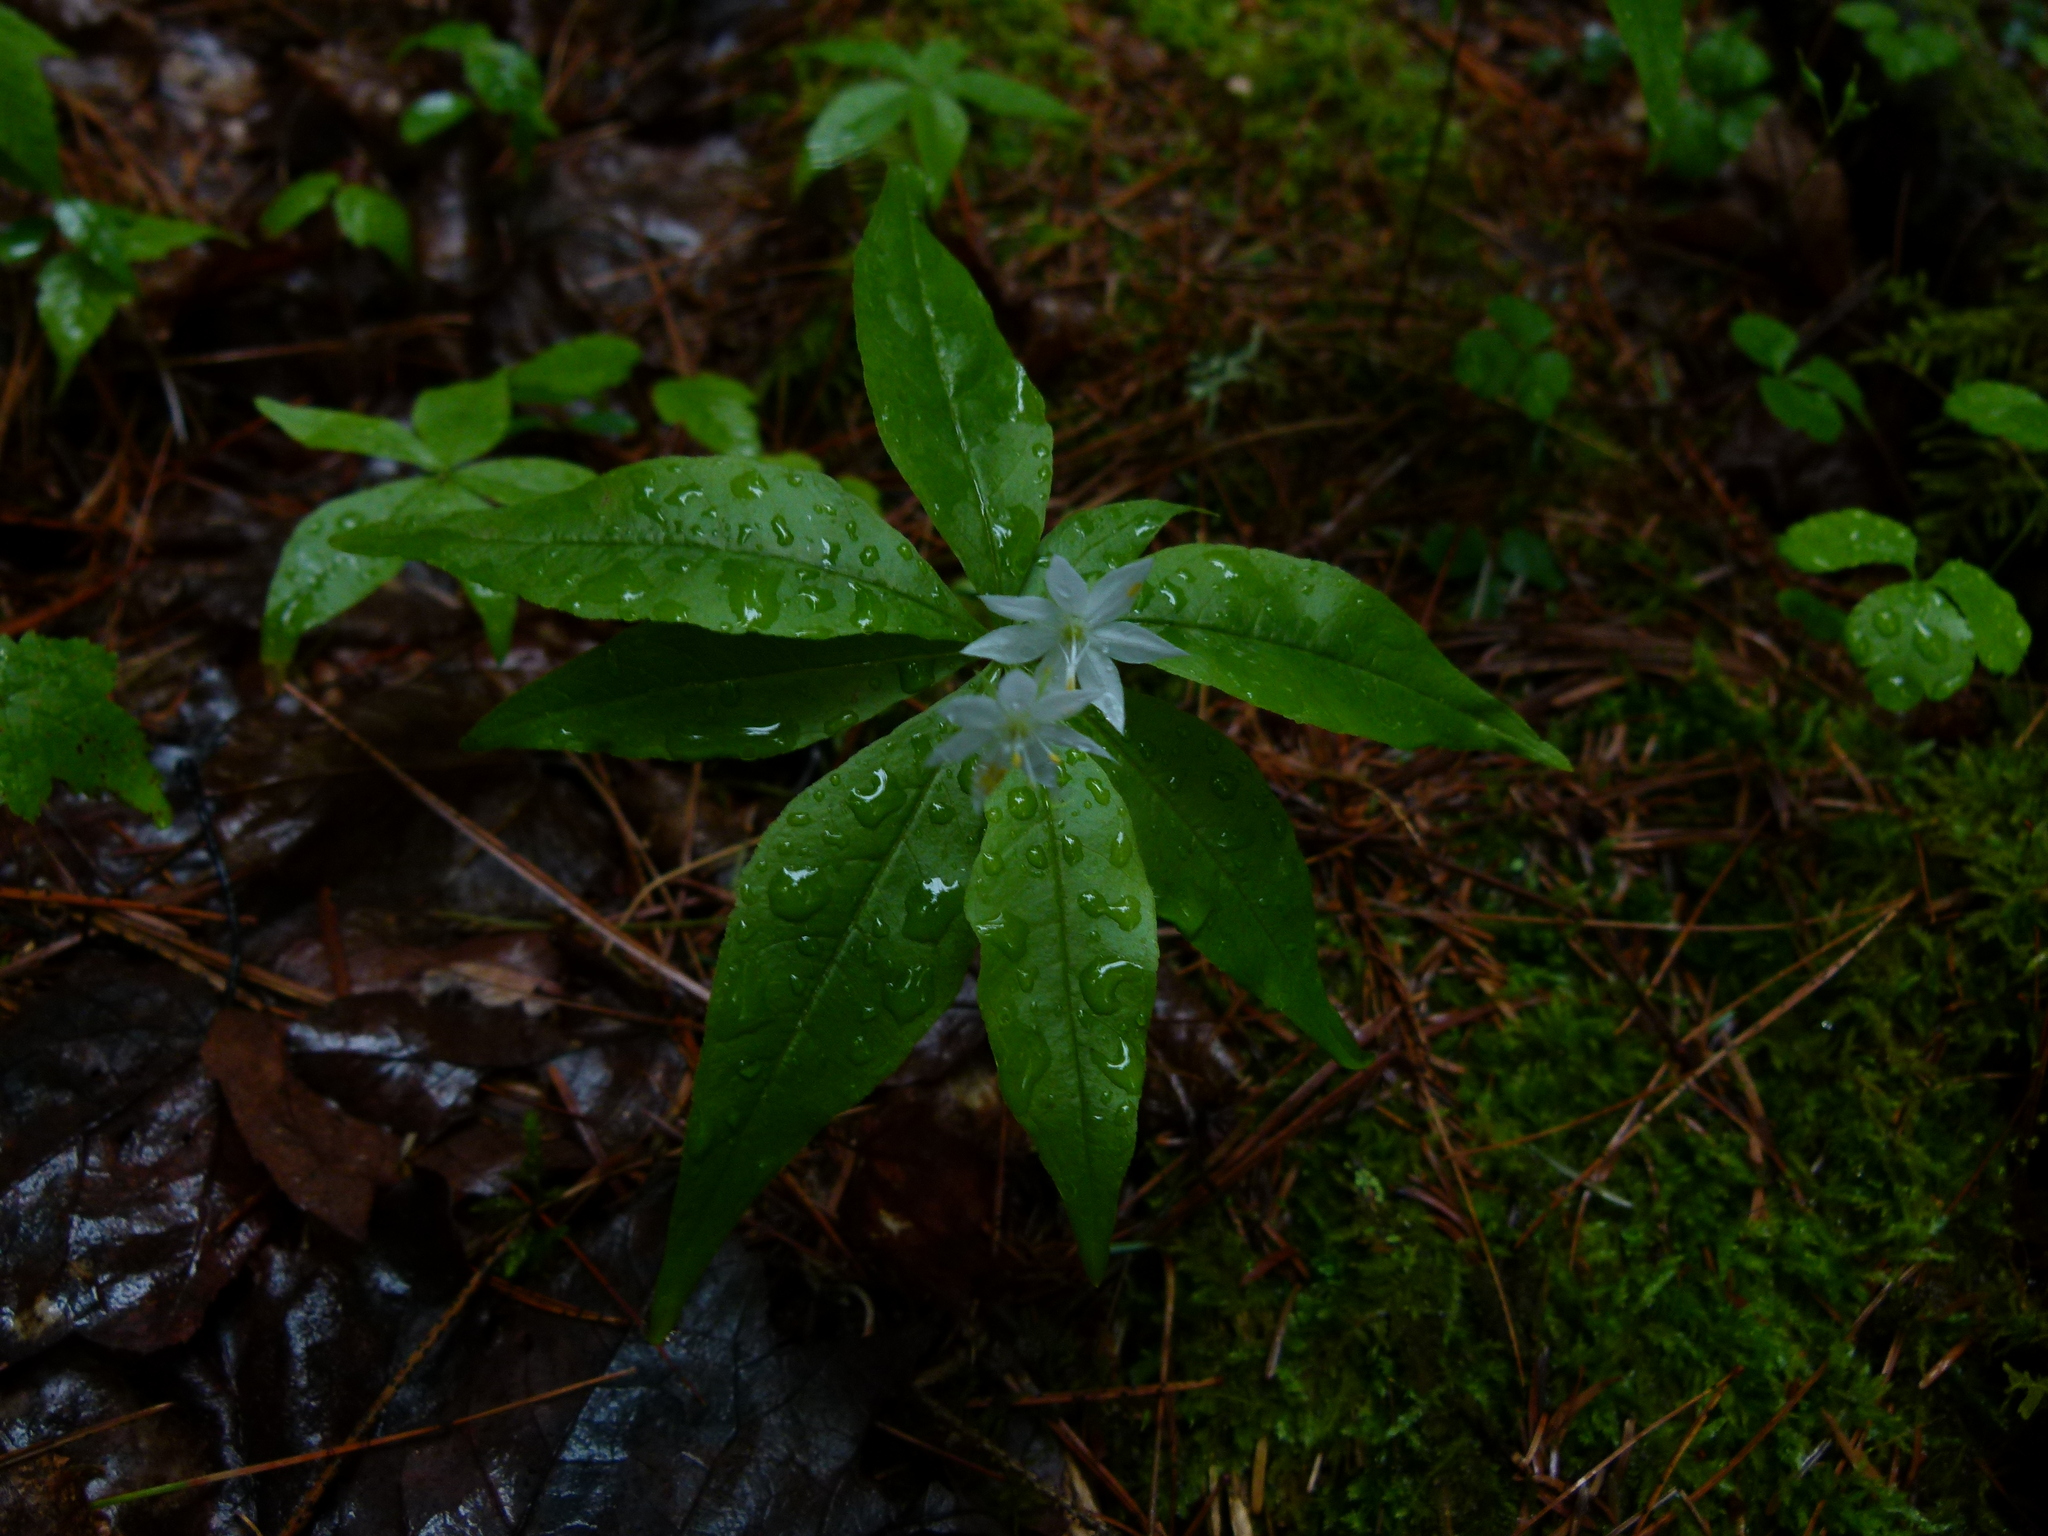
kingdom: Plantae
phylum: Tracheophyta
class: Magnoliopsida
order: Ericales
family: Primulaceae
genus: Lysimachia
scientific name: Lysimachia borealis
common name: American starflower
